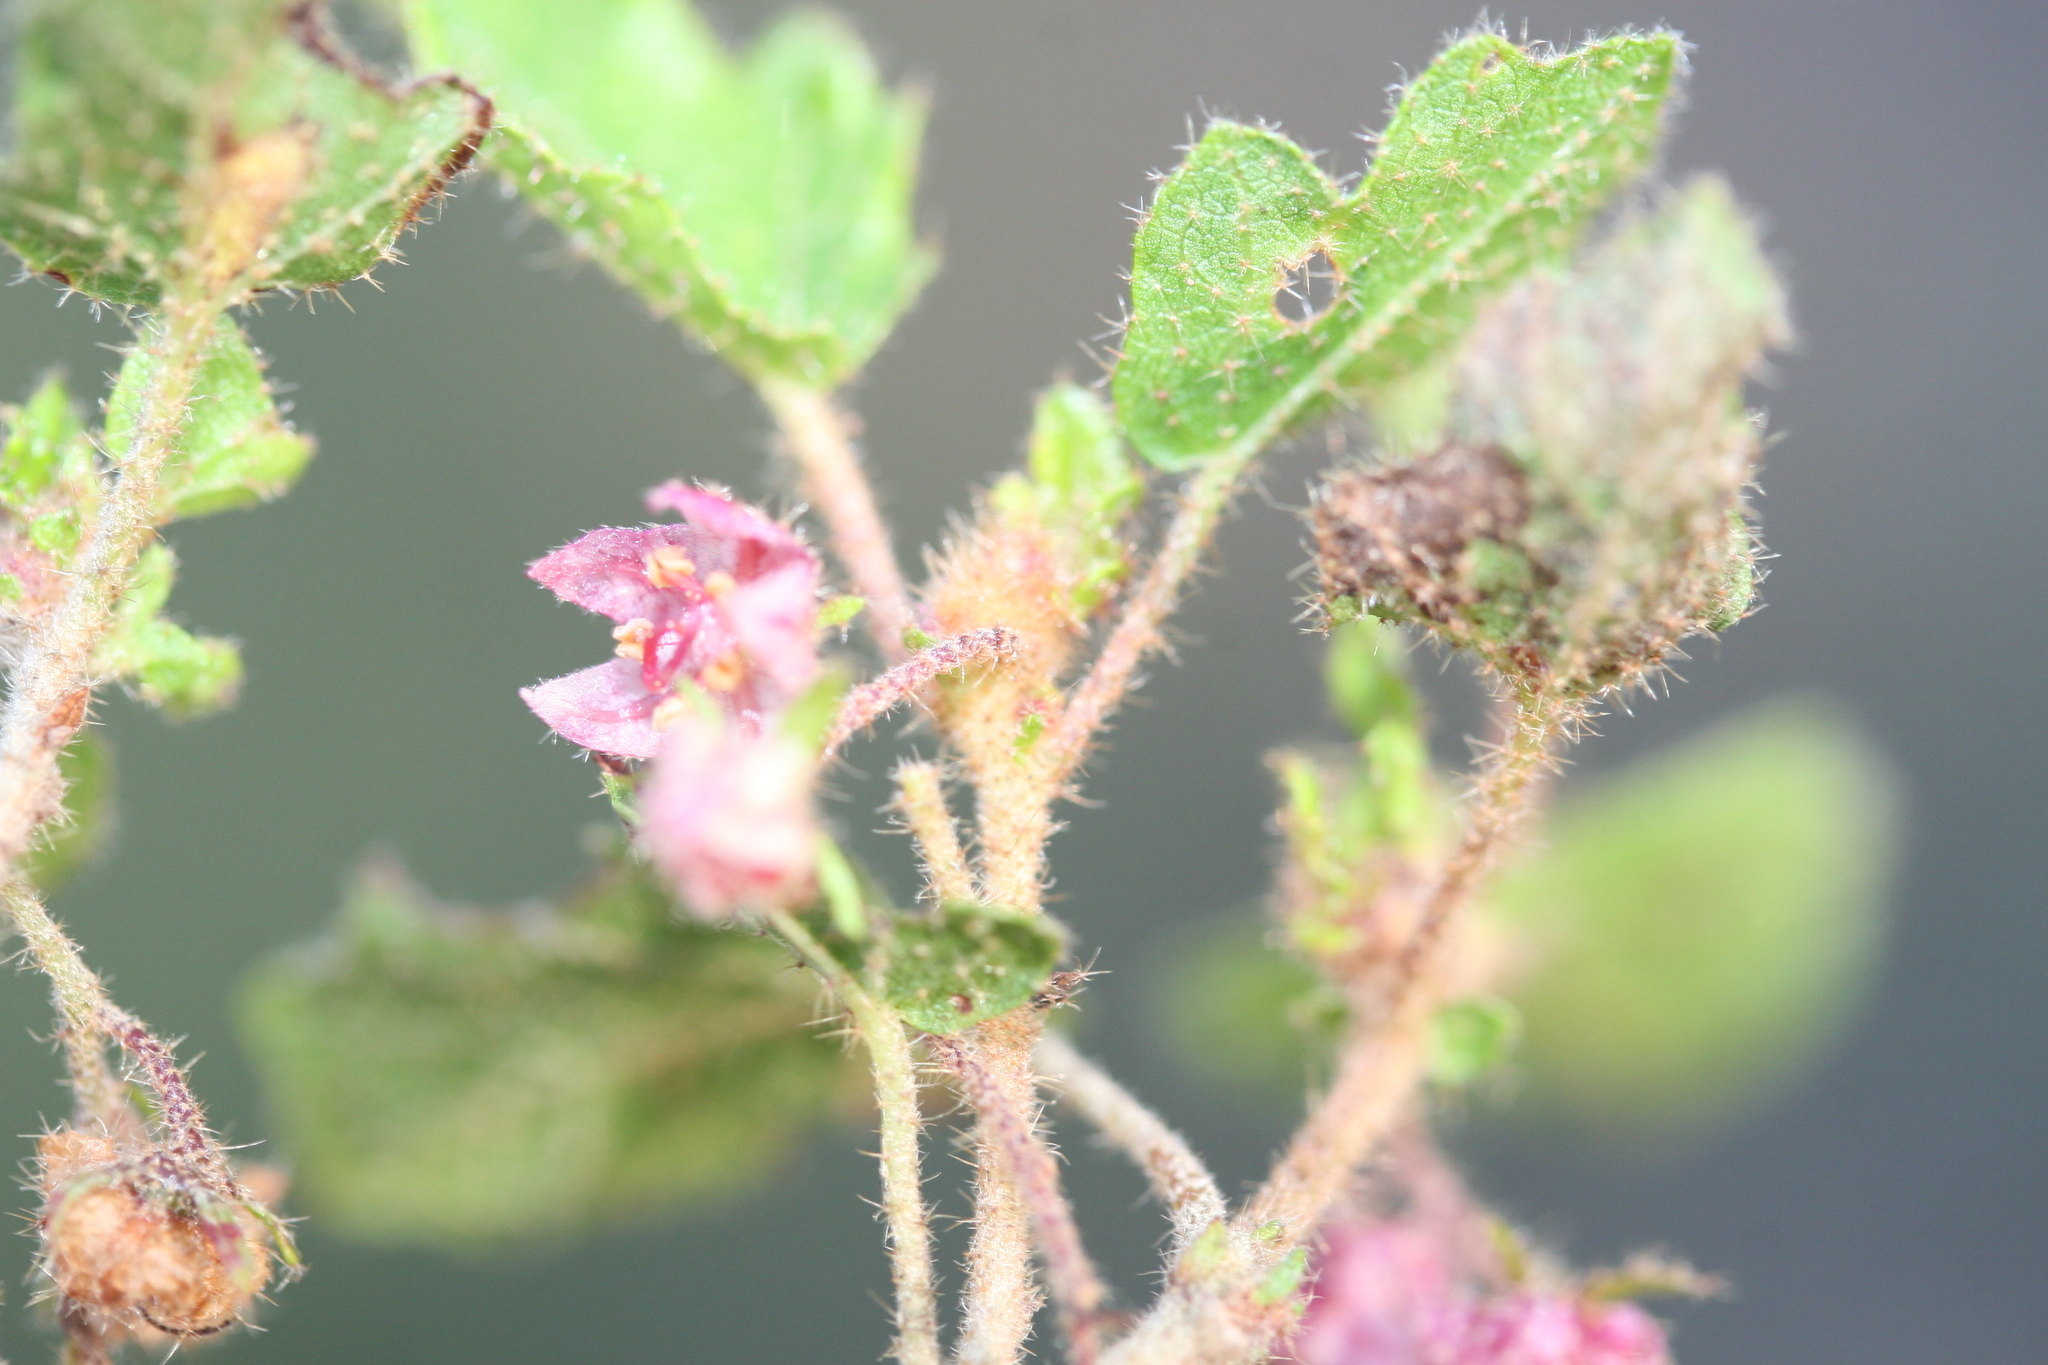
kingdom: Plantae
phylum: Tracheophyta
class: Magnoliopsida
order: Malvales
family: Malvaceae
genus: Thomasia
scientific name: Thomasia foliosa
